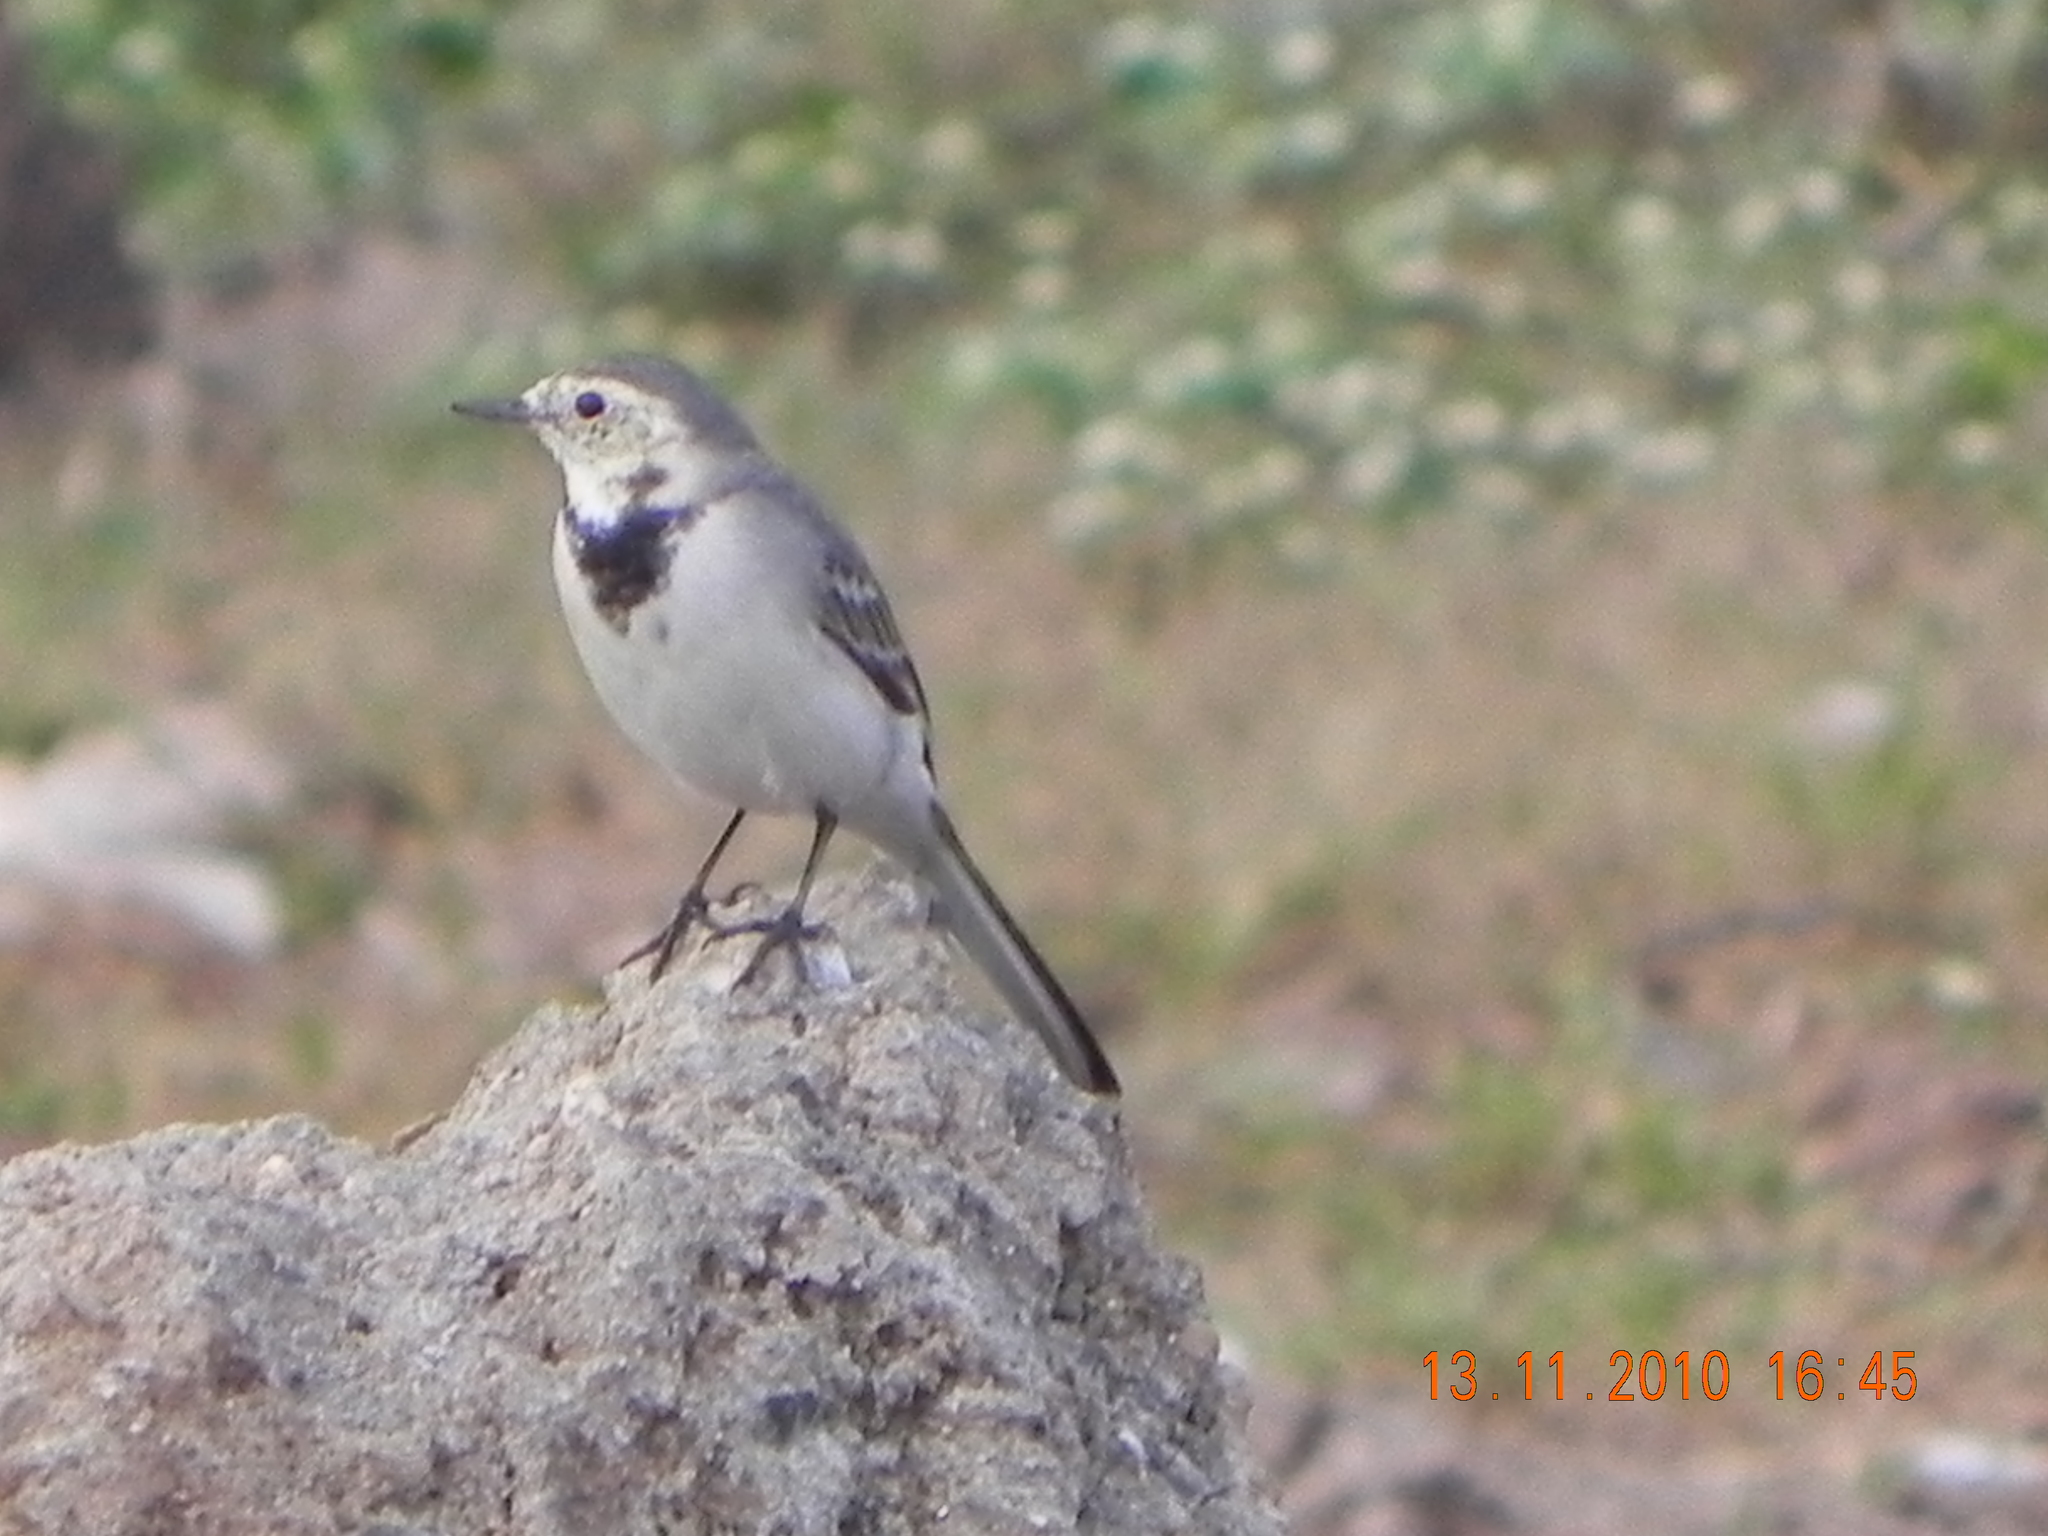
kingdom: Animalia
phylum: Chordata
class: Aves
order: Passeriformes
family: Motacillidae
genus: Motacilla
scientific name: Motacilla alba
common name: White wagtail
